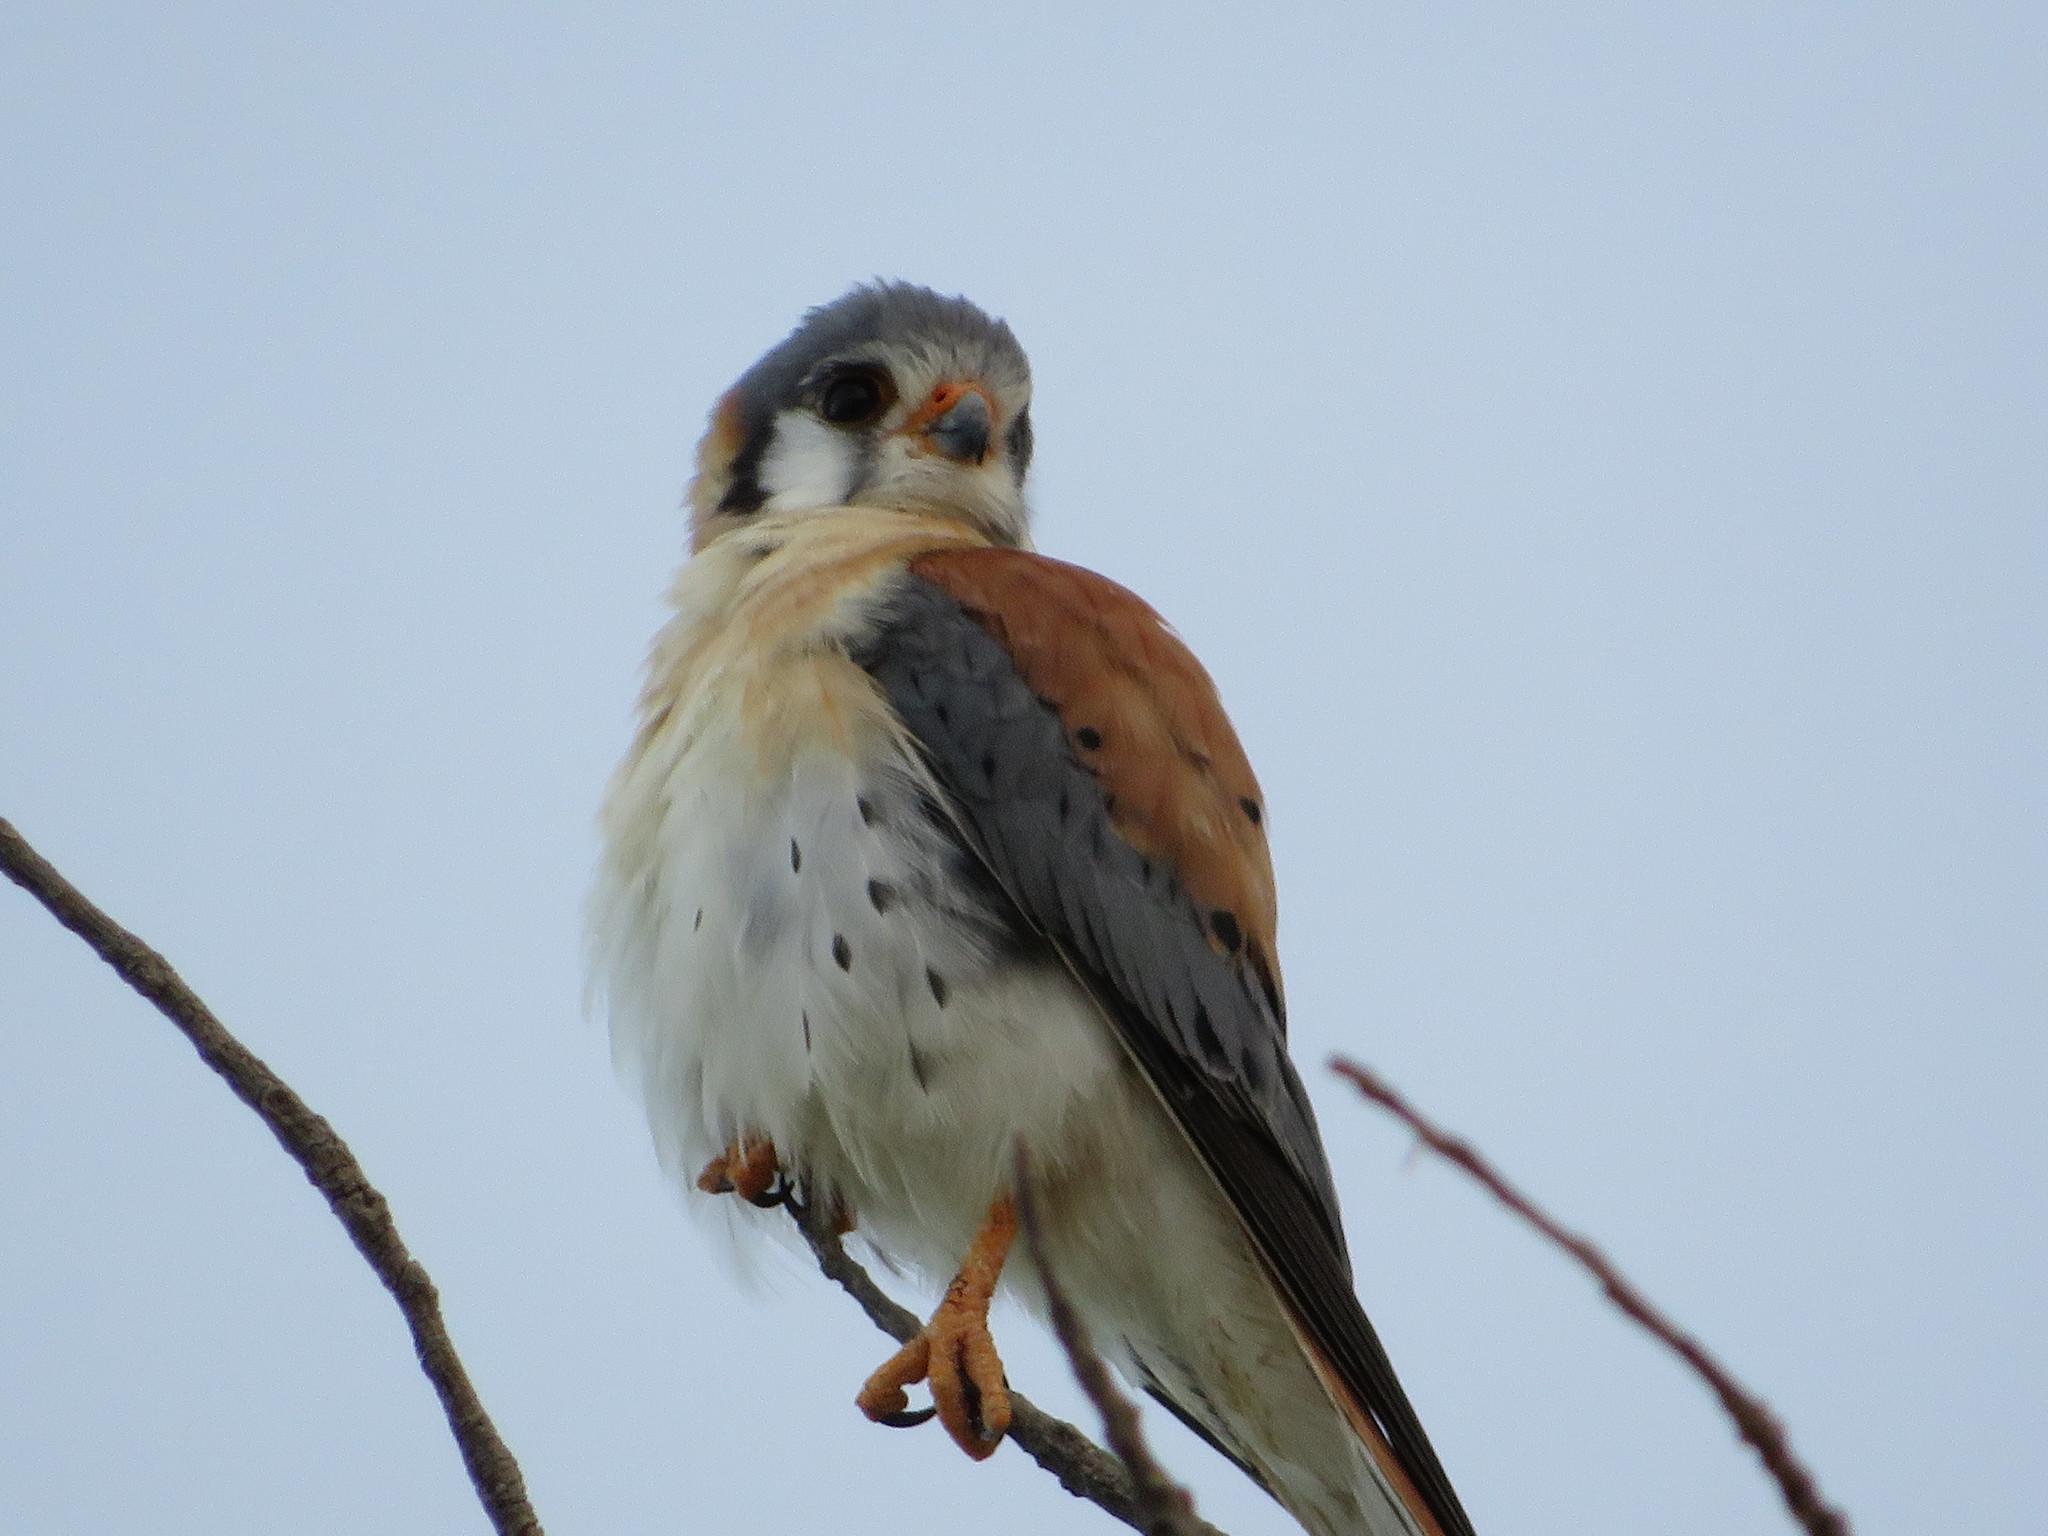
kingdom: Animalia
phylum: Chordata
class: Aves
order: Falconiformes
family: Falconidae
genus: Falco
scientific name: Falco sparverius
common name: American kestrel
